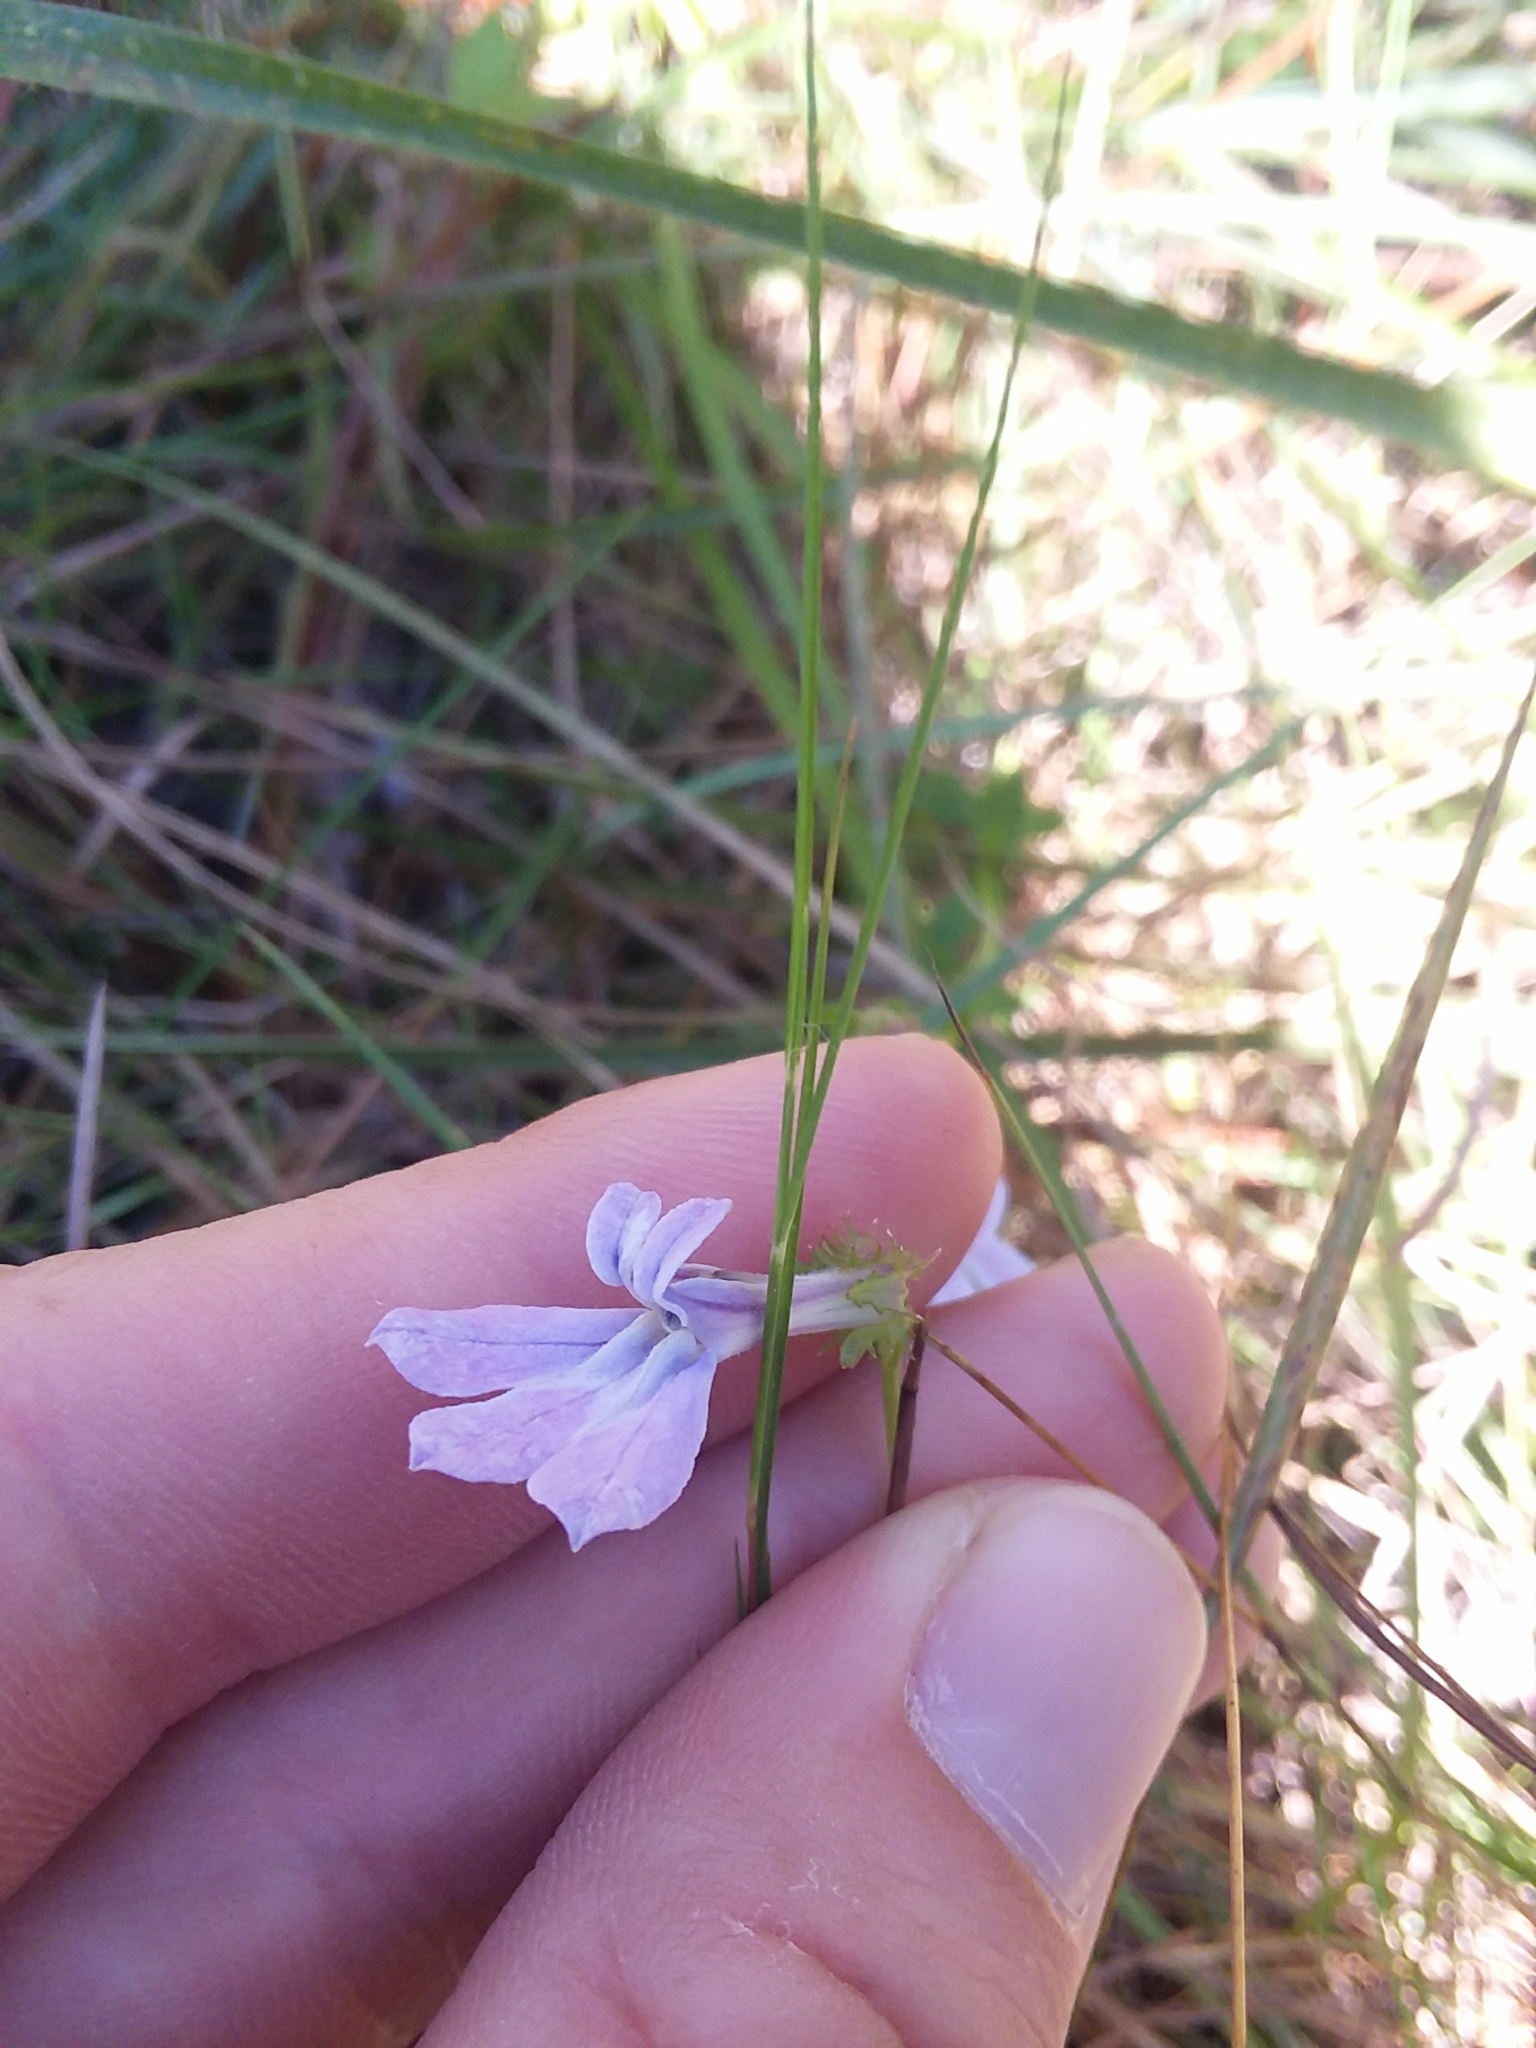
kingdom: Plantae
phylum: Tracheophyta
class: Magnoliopsida
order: Asterales
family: Campanulaceae
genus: Lobelia
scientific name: Lobelia brevifolia
